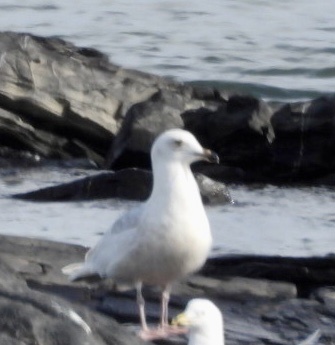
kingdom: Animalia
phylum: Chordata
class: Aves
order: Charadriiformes
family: Laridae
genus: Larus
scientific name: Larus glaucoides
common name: Iceland gull
